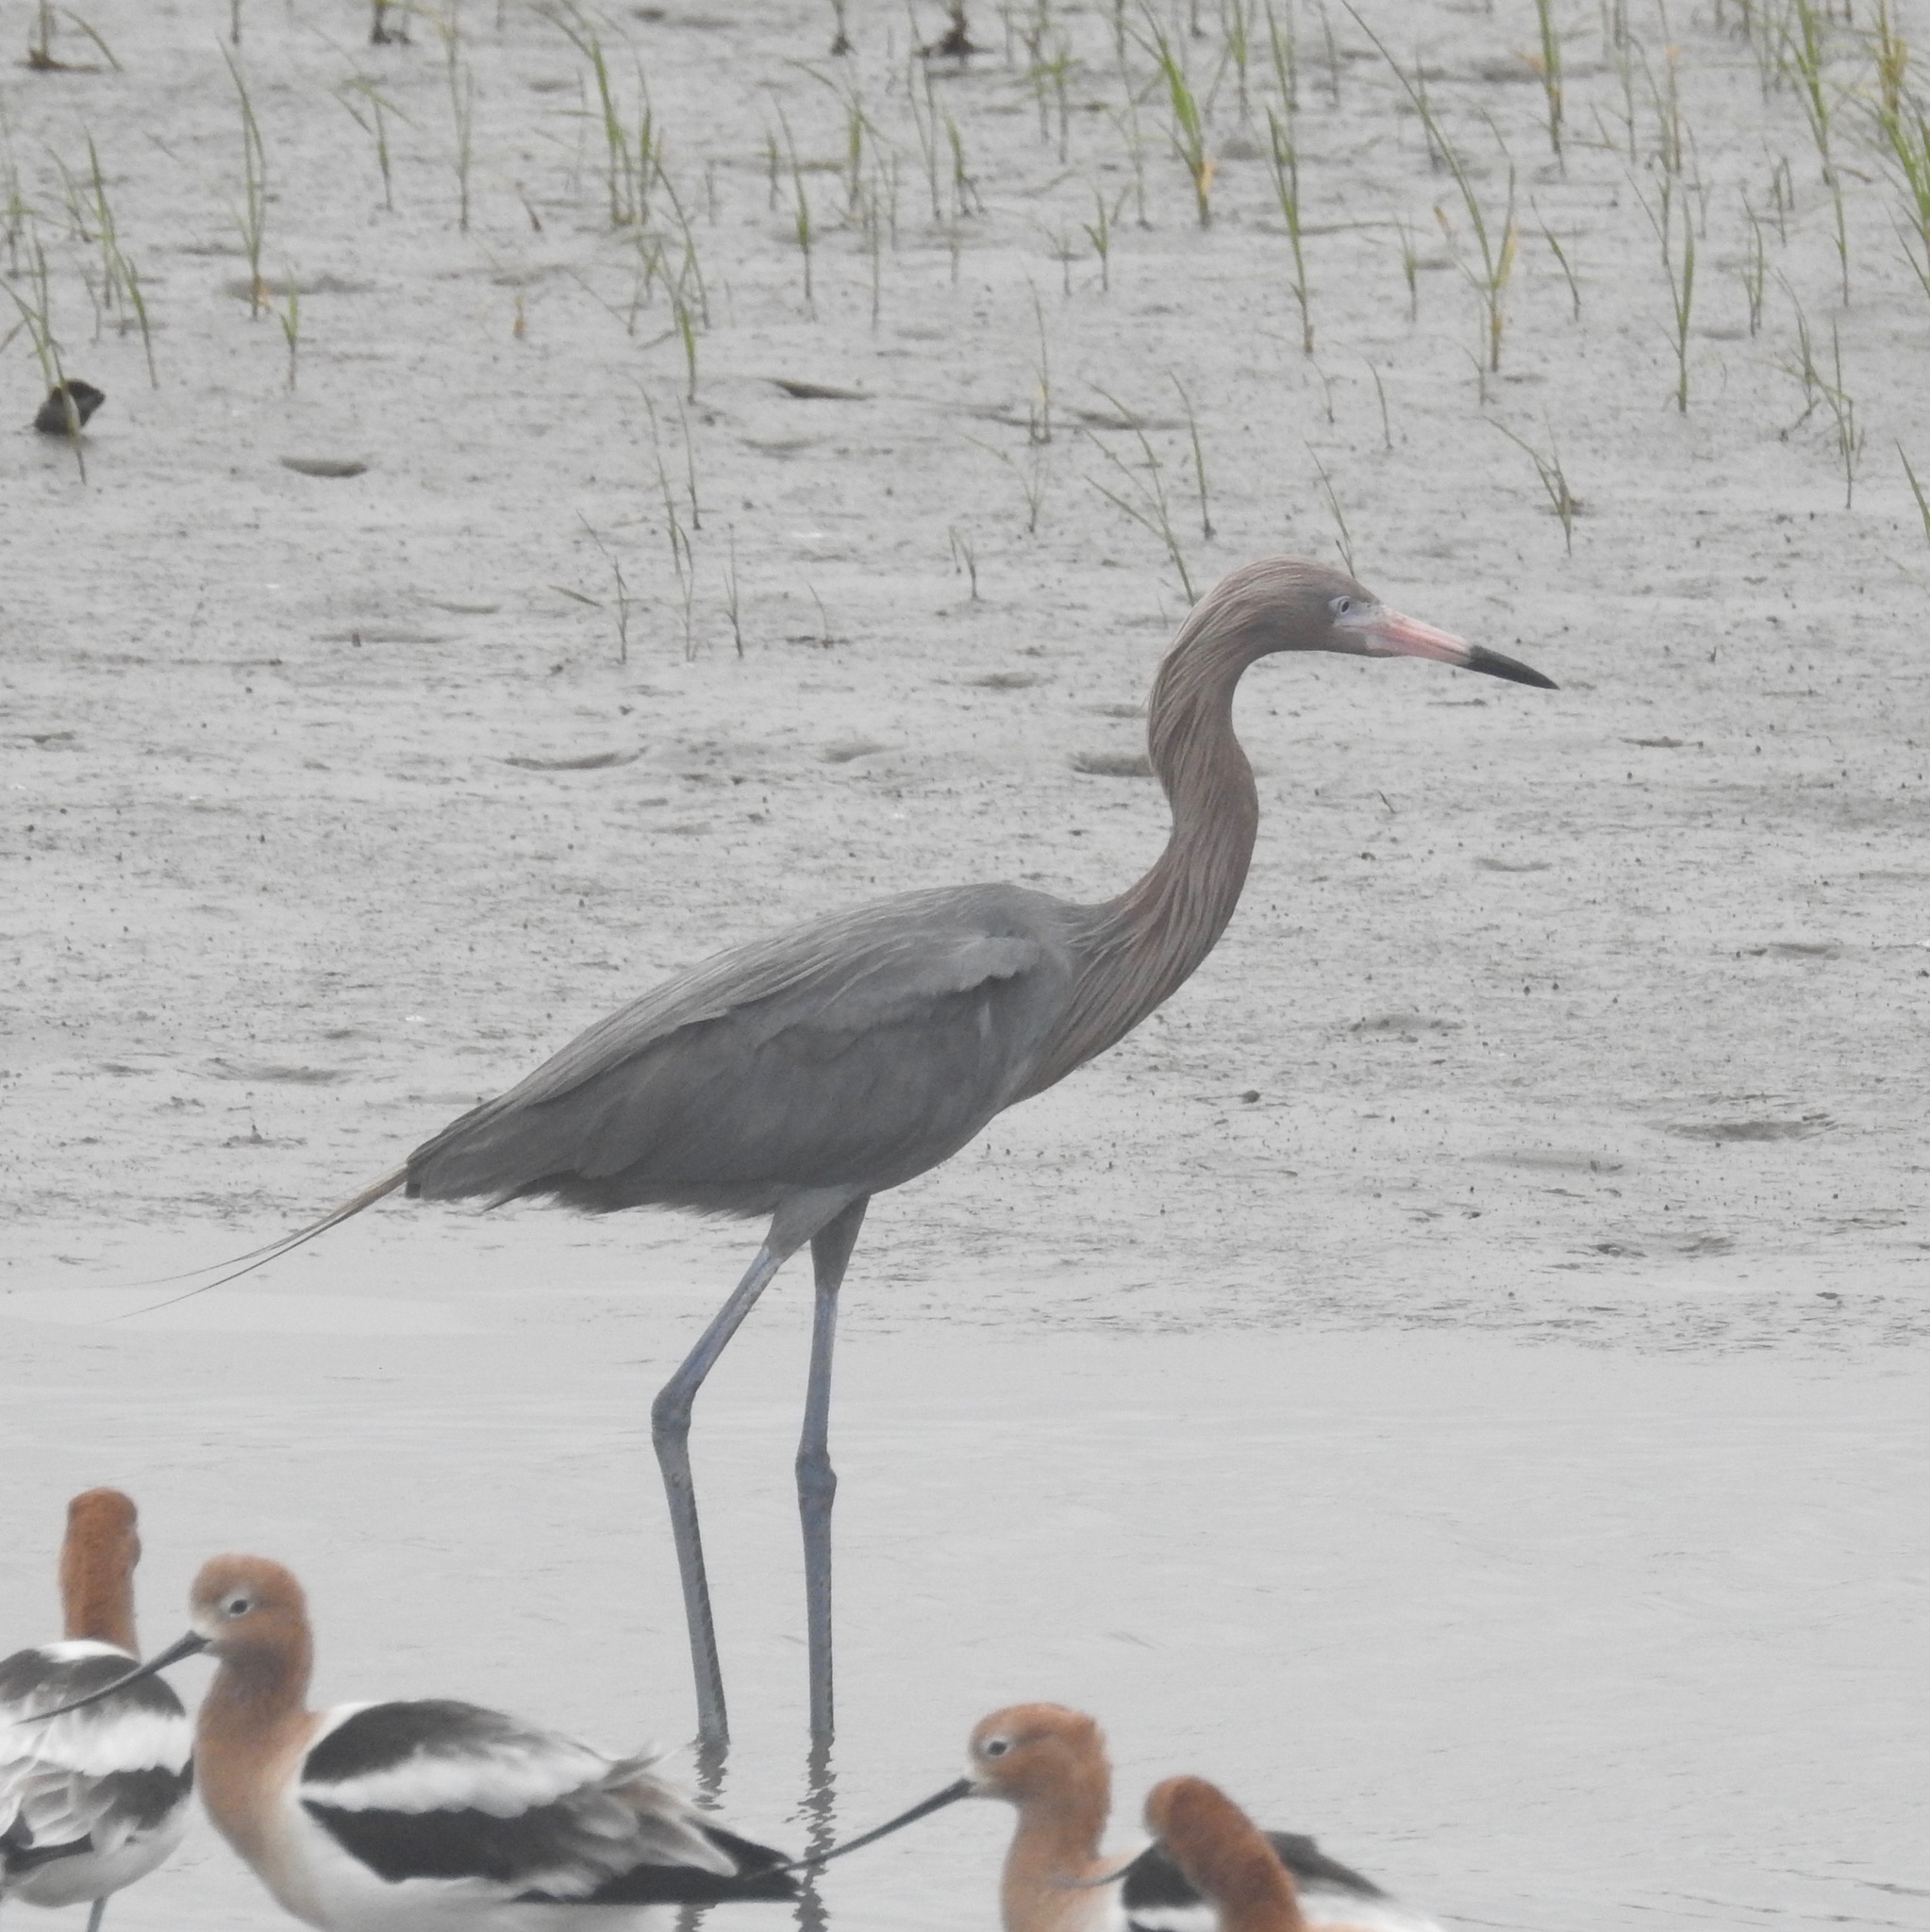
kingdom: Animalia
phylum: Chordata
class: Aves
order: Pelecaniformes
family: Ardeidae
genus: Egretta
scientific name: Egretta rufescens
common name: Reddish egret
